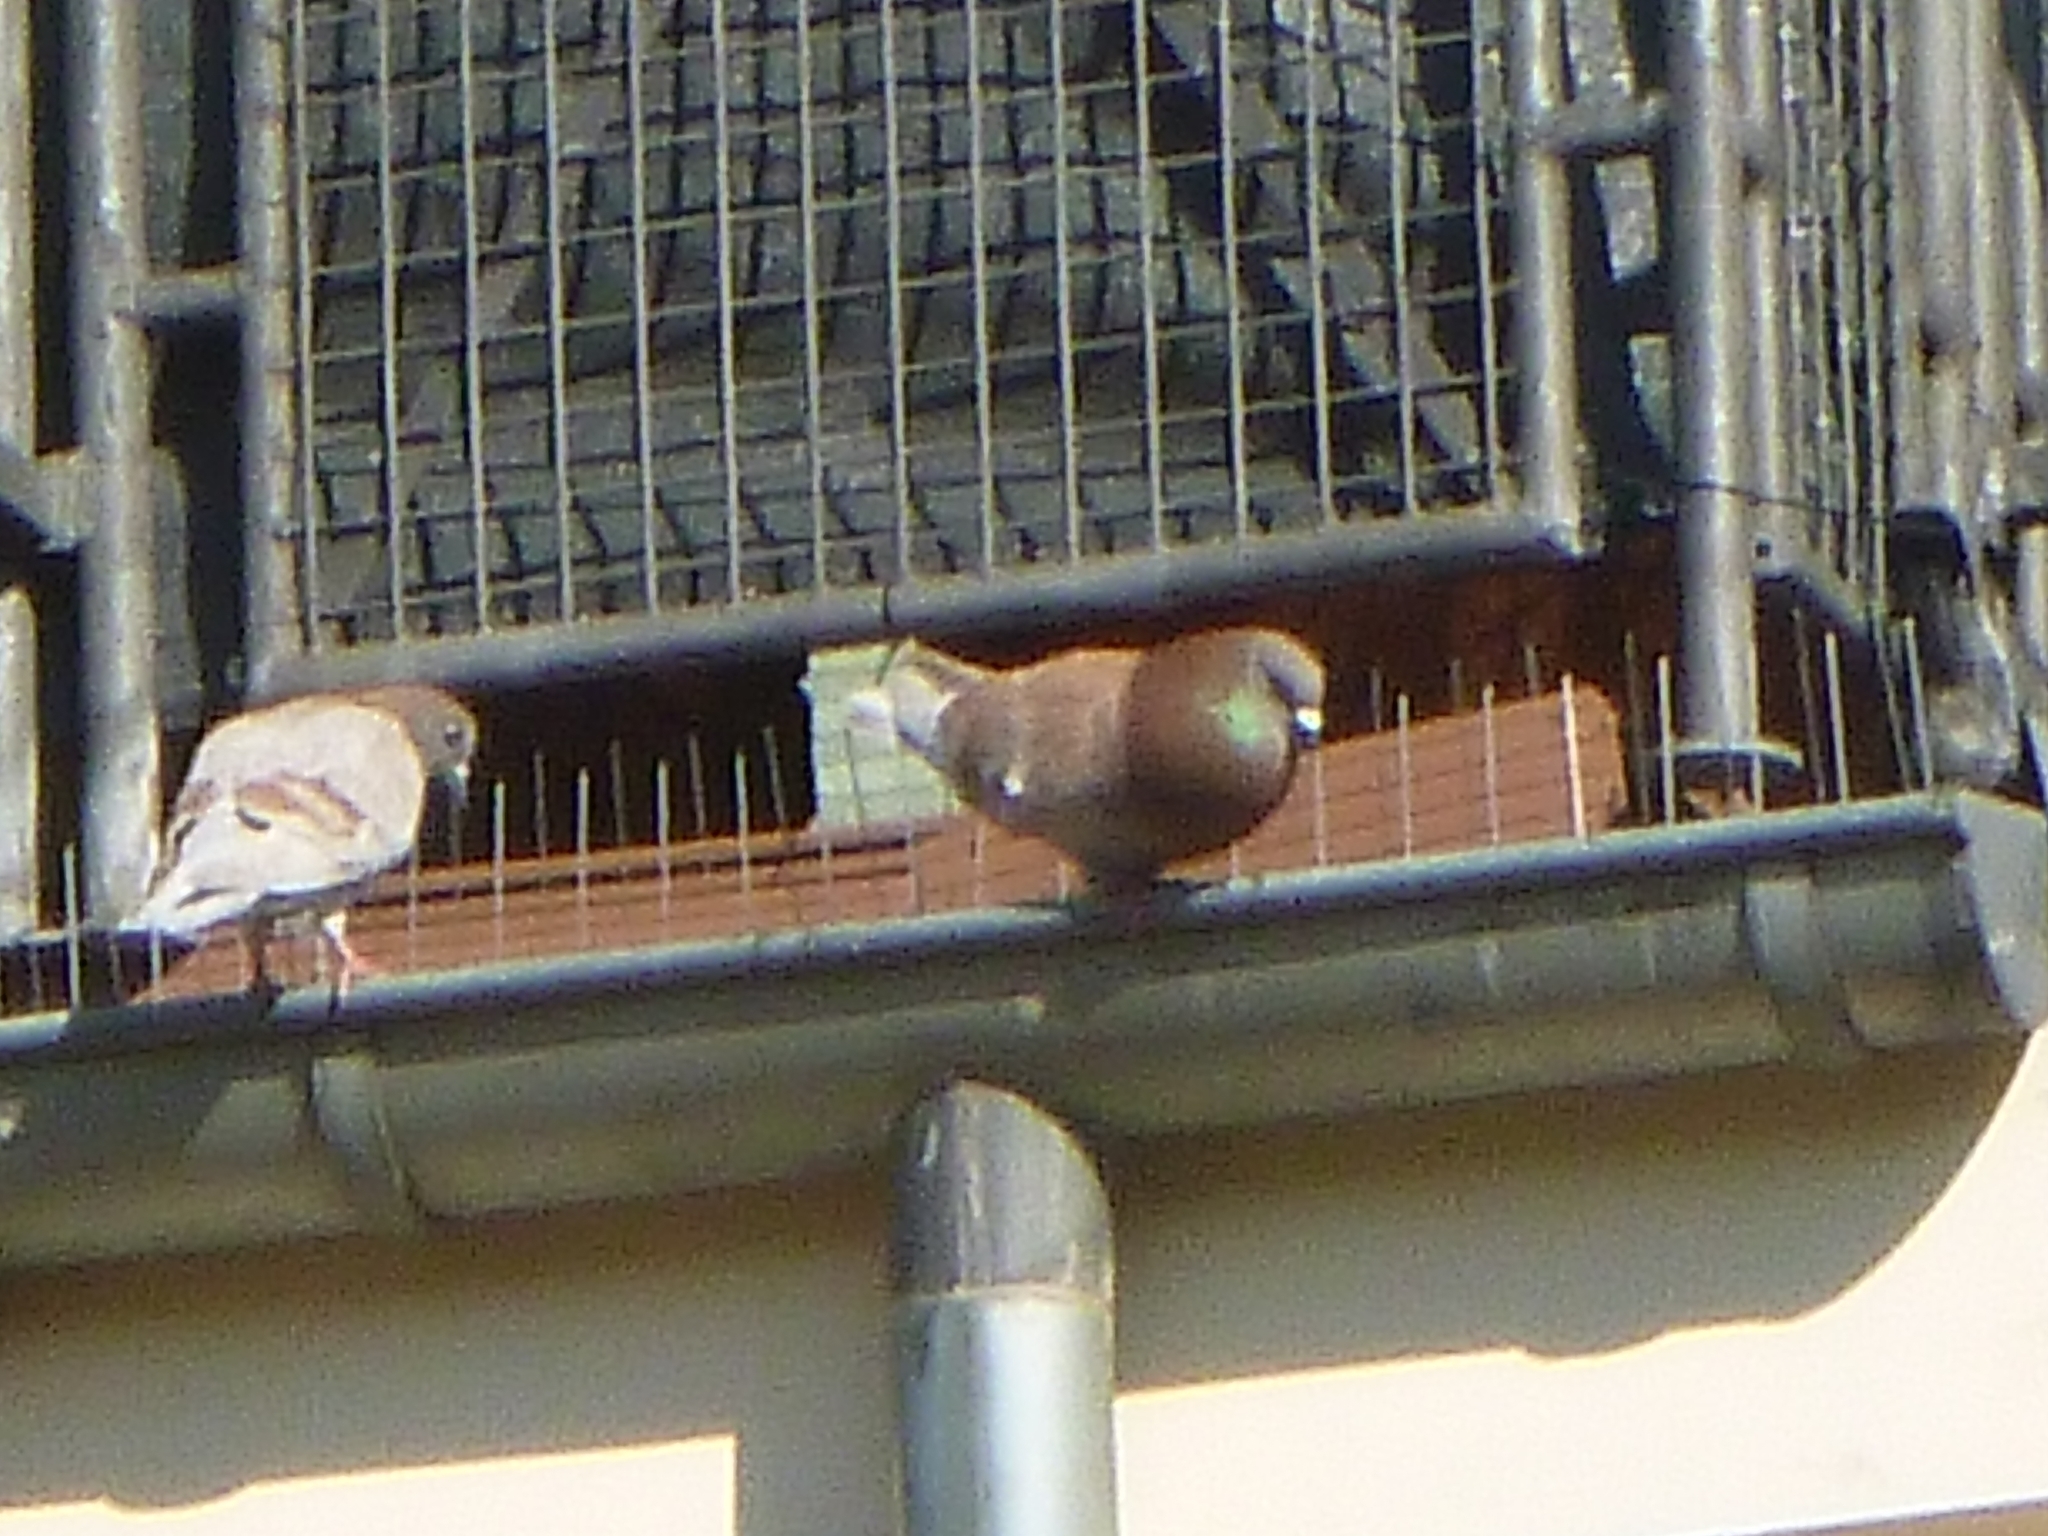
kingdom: Animalia
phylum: Chordata
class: Aves
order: Columbiformes
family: Columbidae
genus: Columba
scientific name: Columba livia
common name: Rock pigeon
